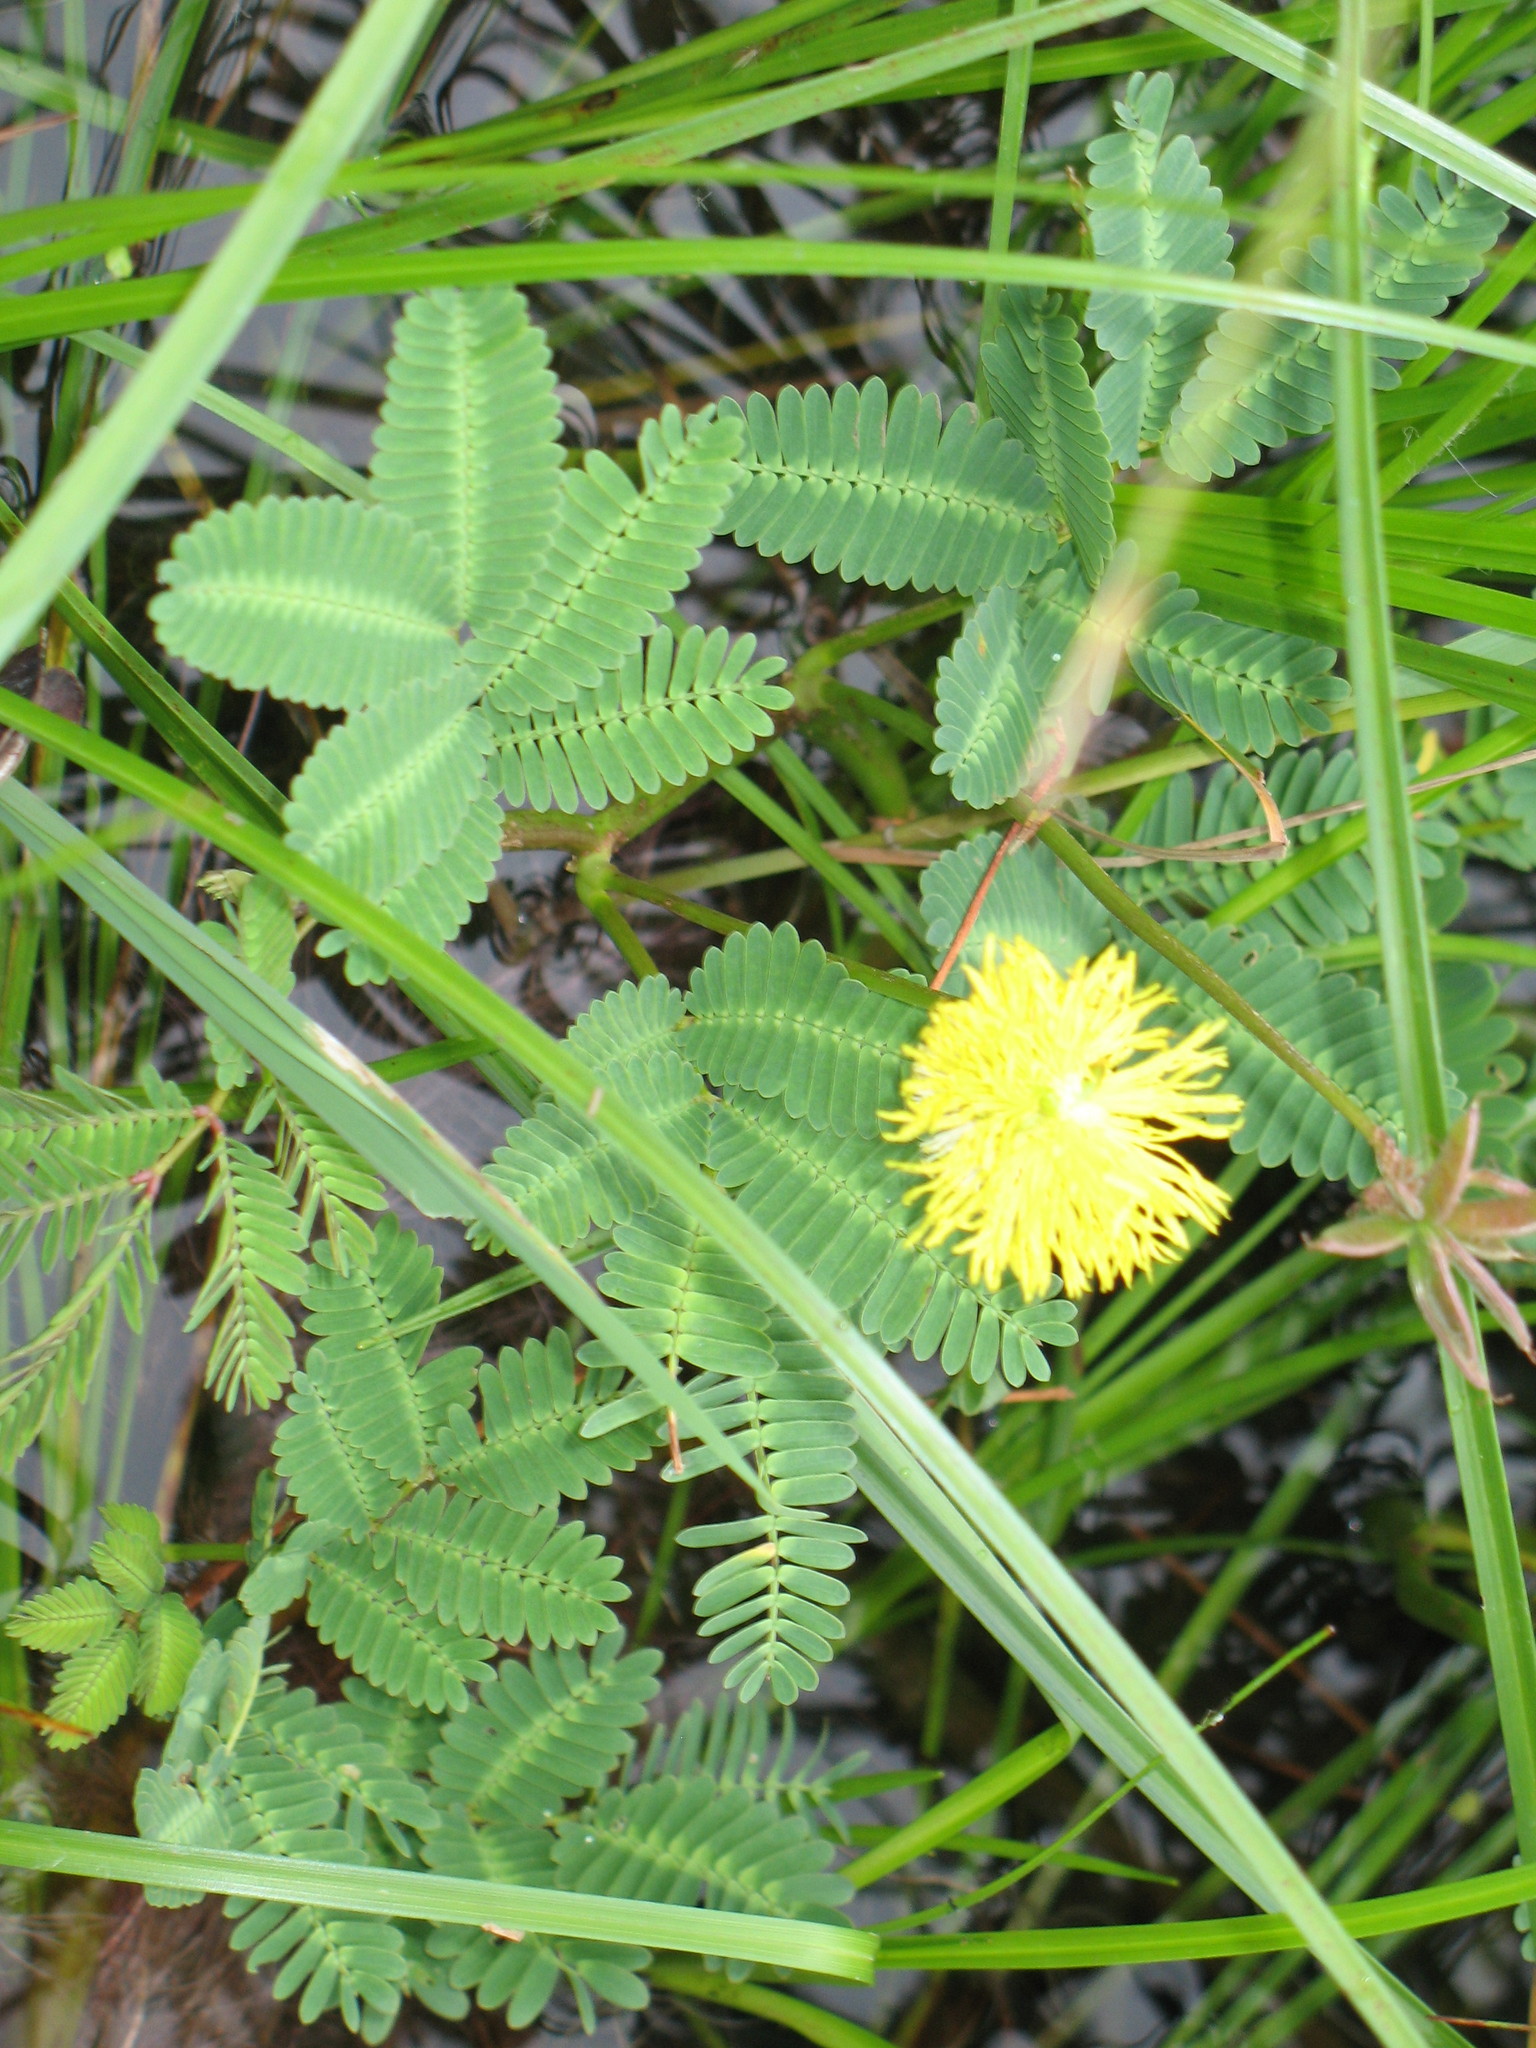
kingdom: Plantae
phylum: Tracheophyta
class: Magnoliopsida
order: Fabales
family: Fabaceae
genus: Neptunia
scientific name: Neptunia prostrata
